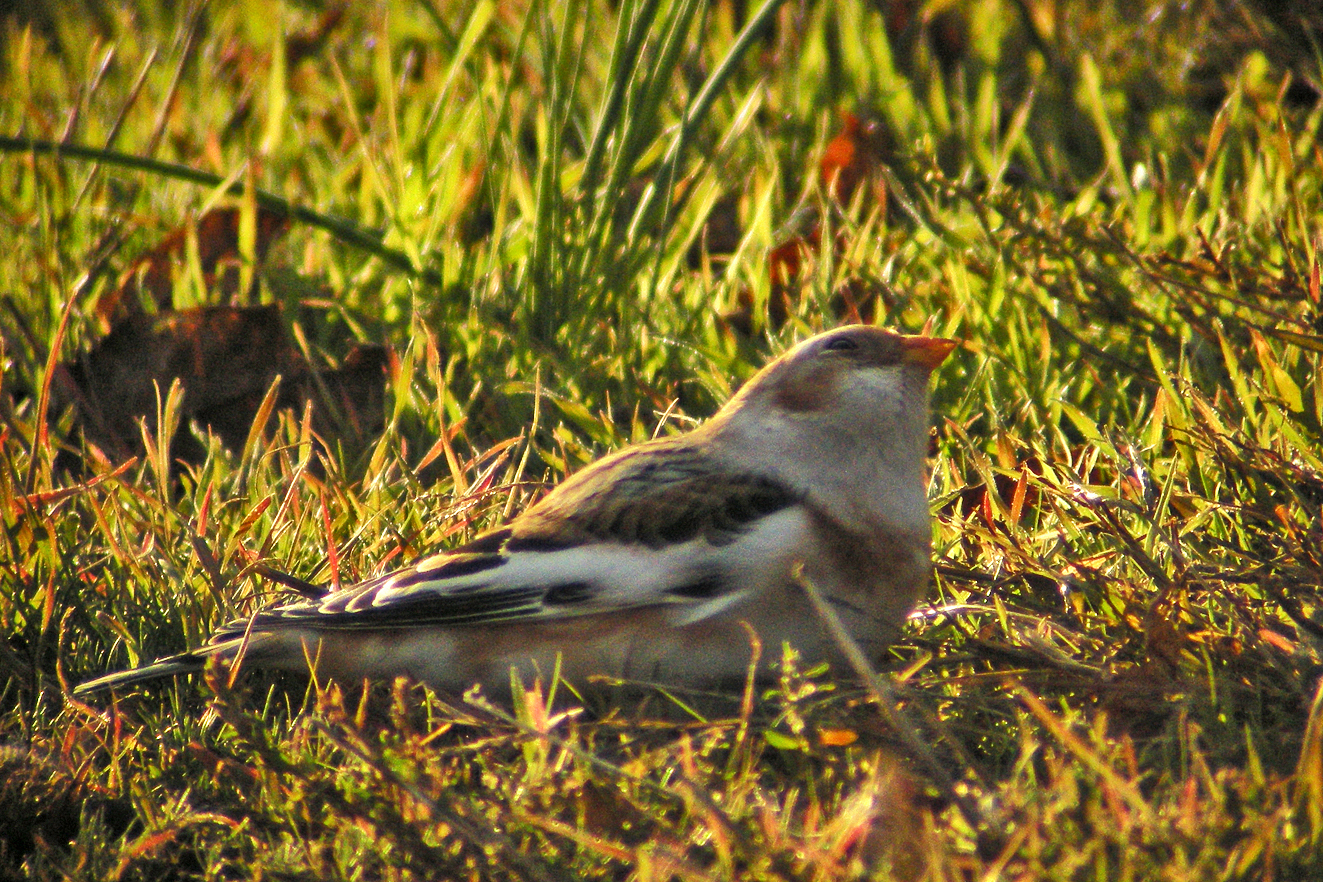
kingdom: Animalia
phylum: Chordata
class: Aves
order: Passeriformes
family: Calcariidae
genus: Plectrophenax
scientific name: Plectrophenax nivalis
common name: Snow bunting
